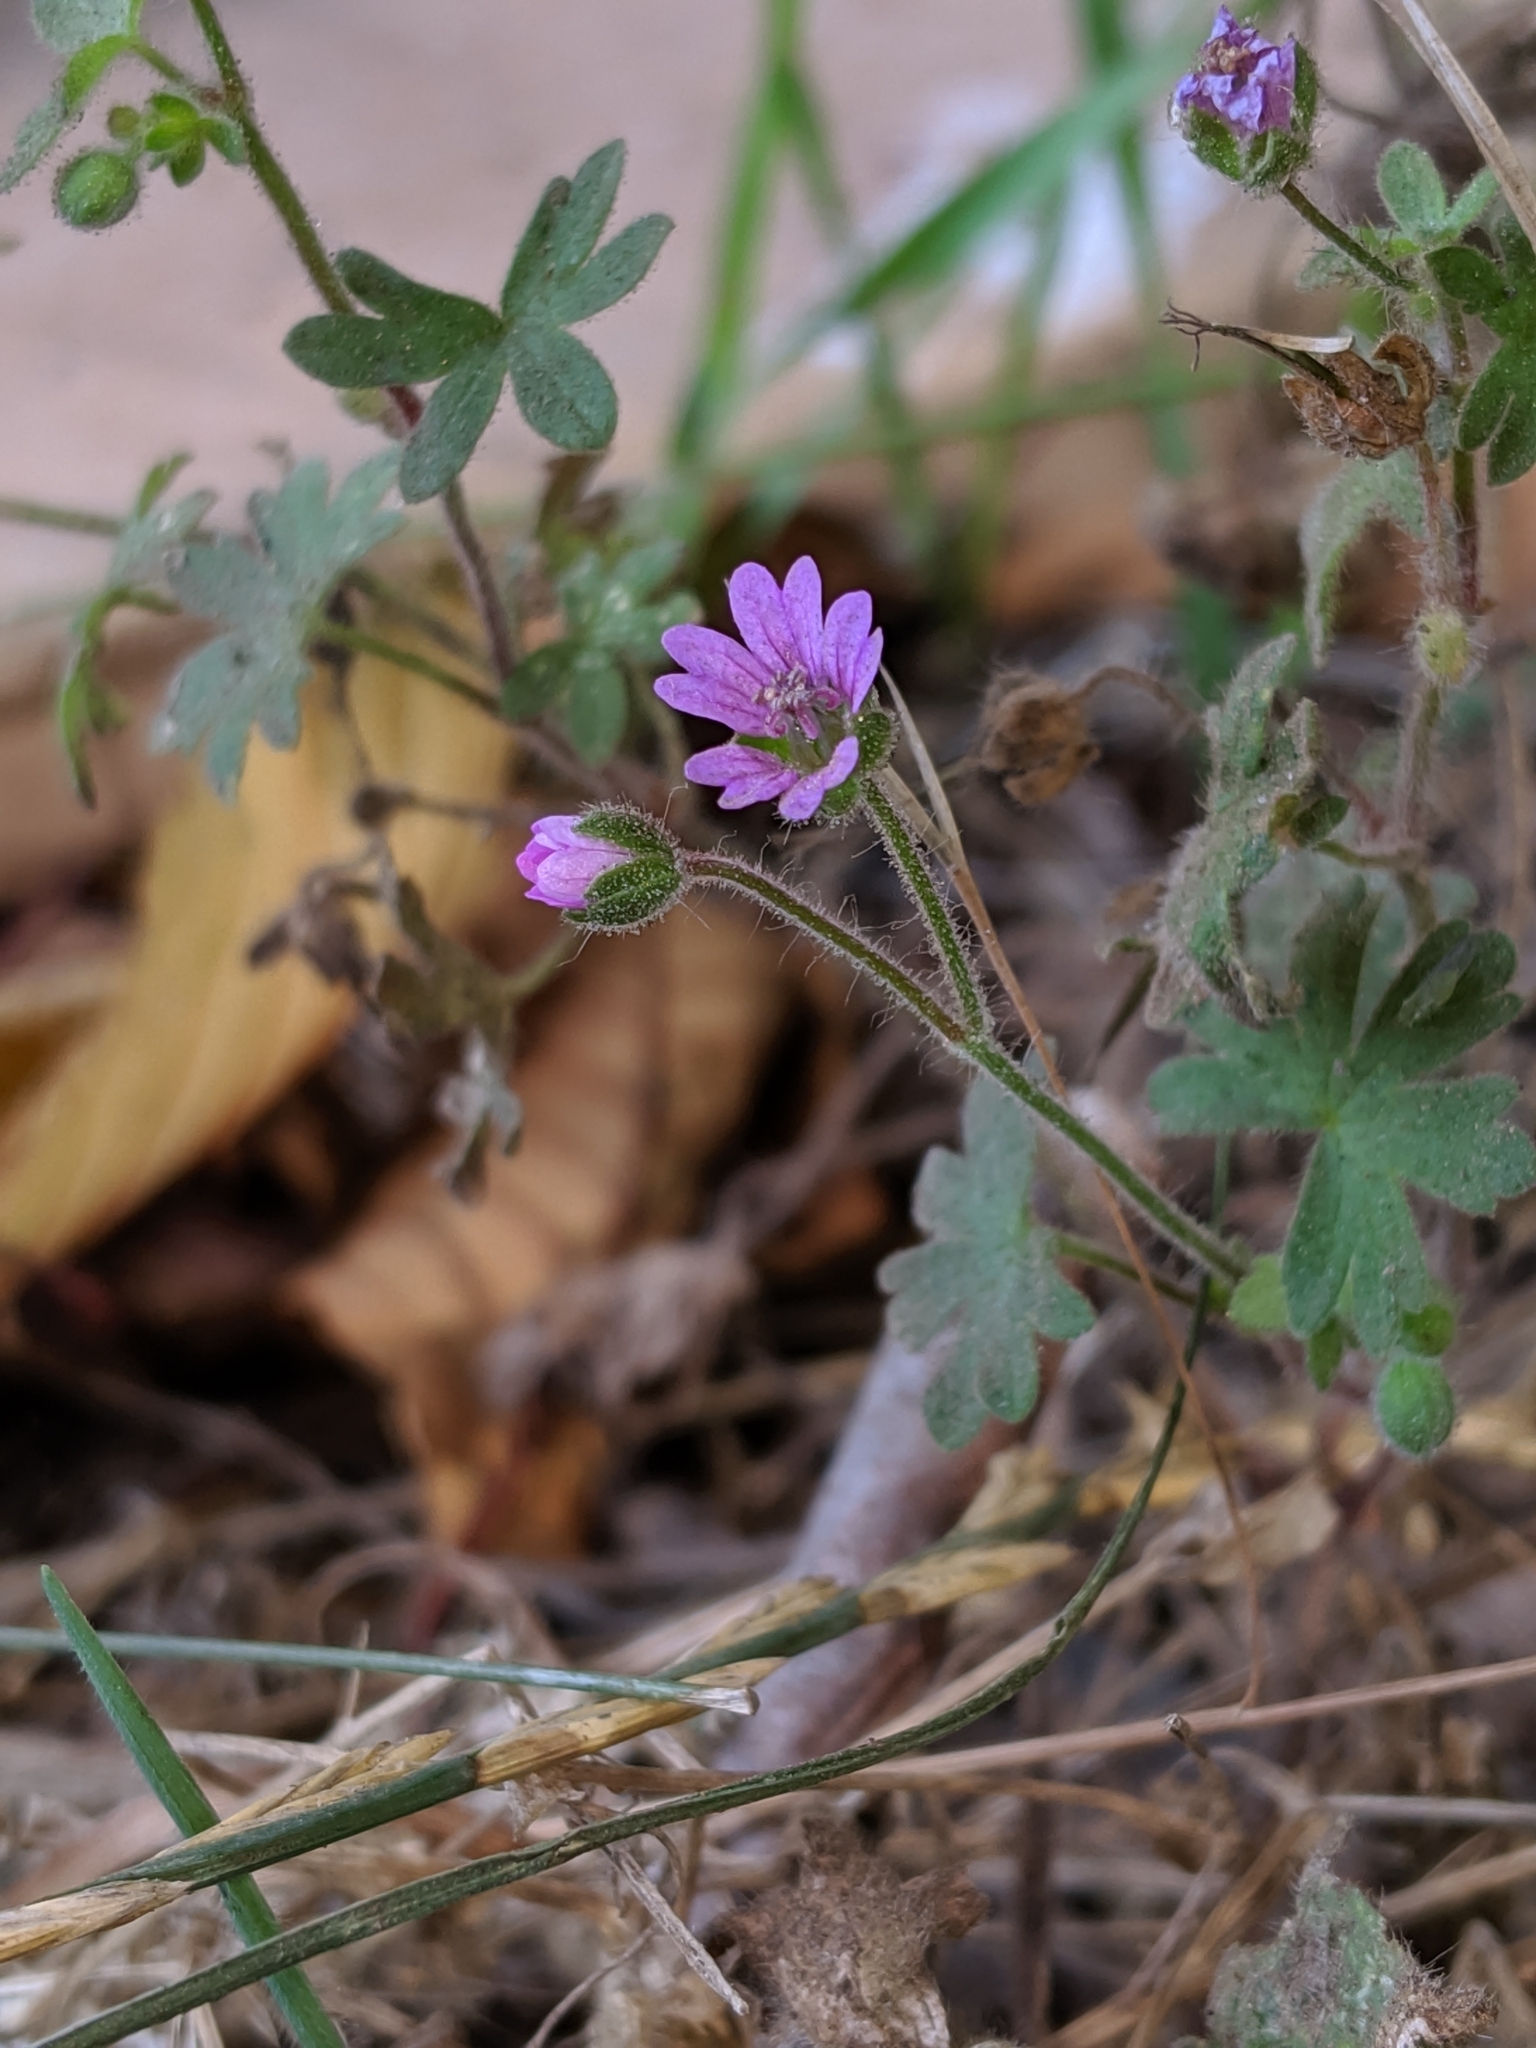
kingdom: Plantae
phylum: Tracheophyta
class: Magnoliopsida
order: Geraniales
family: Geraniaceae
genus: Geranium
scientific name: Geranium molle
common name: Dove's-foot crane's-bill
